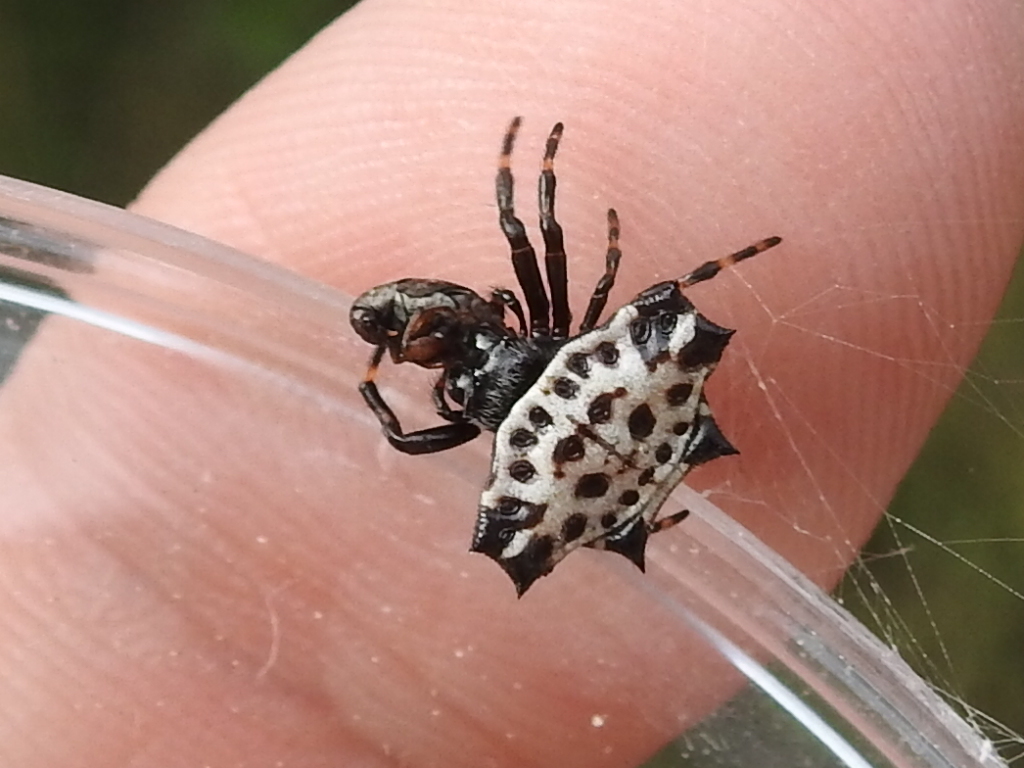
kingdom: Animalia
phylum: Arthropoda
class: Arachnida
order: Araneae
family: Araneidae
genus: Gasteracantha
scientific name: Gasteracantha cancriformis
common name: Orb weavers
